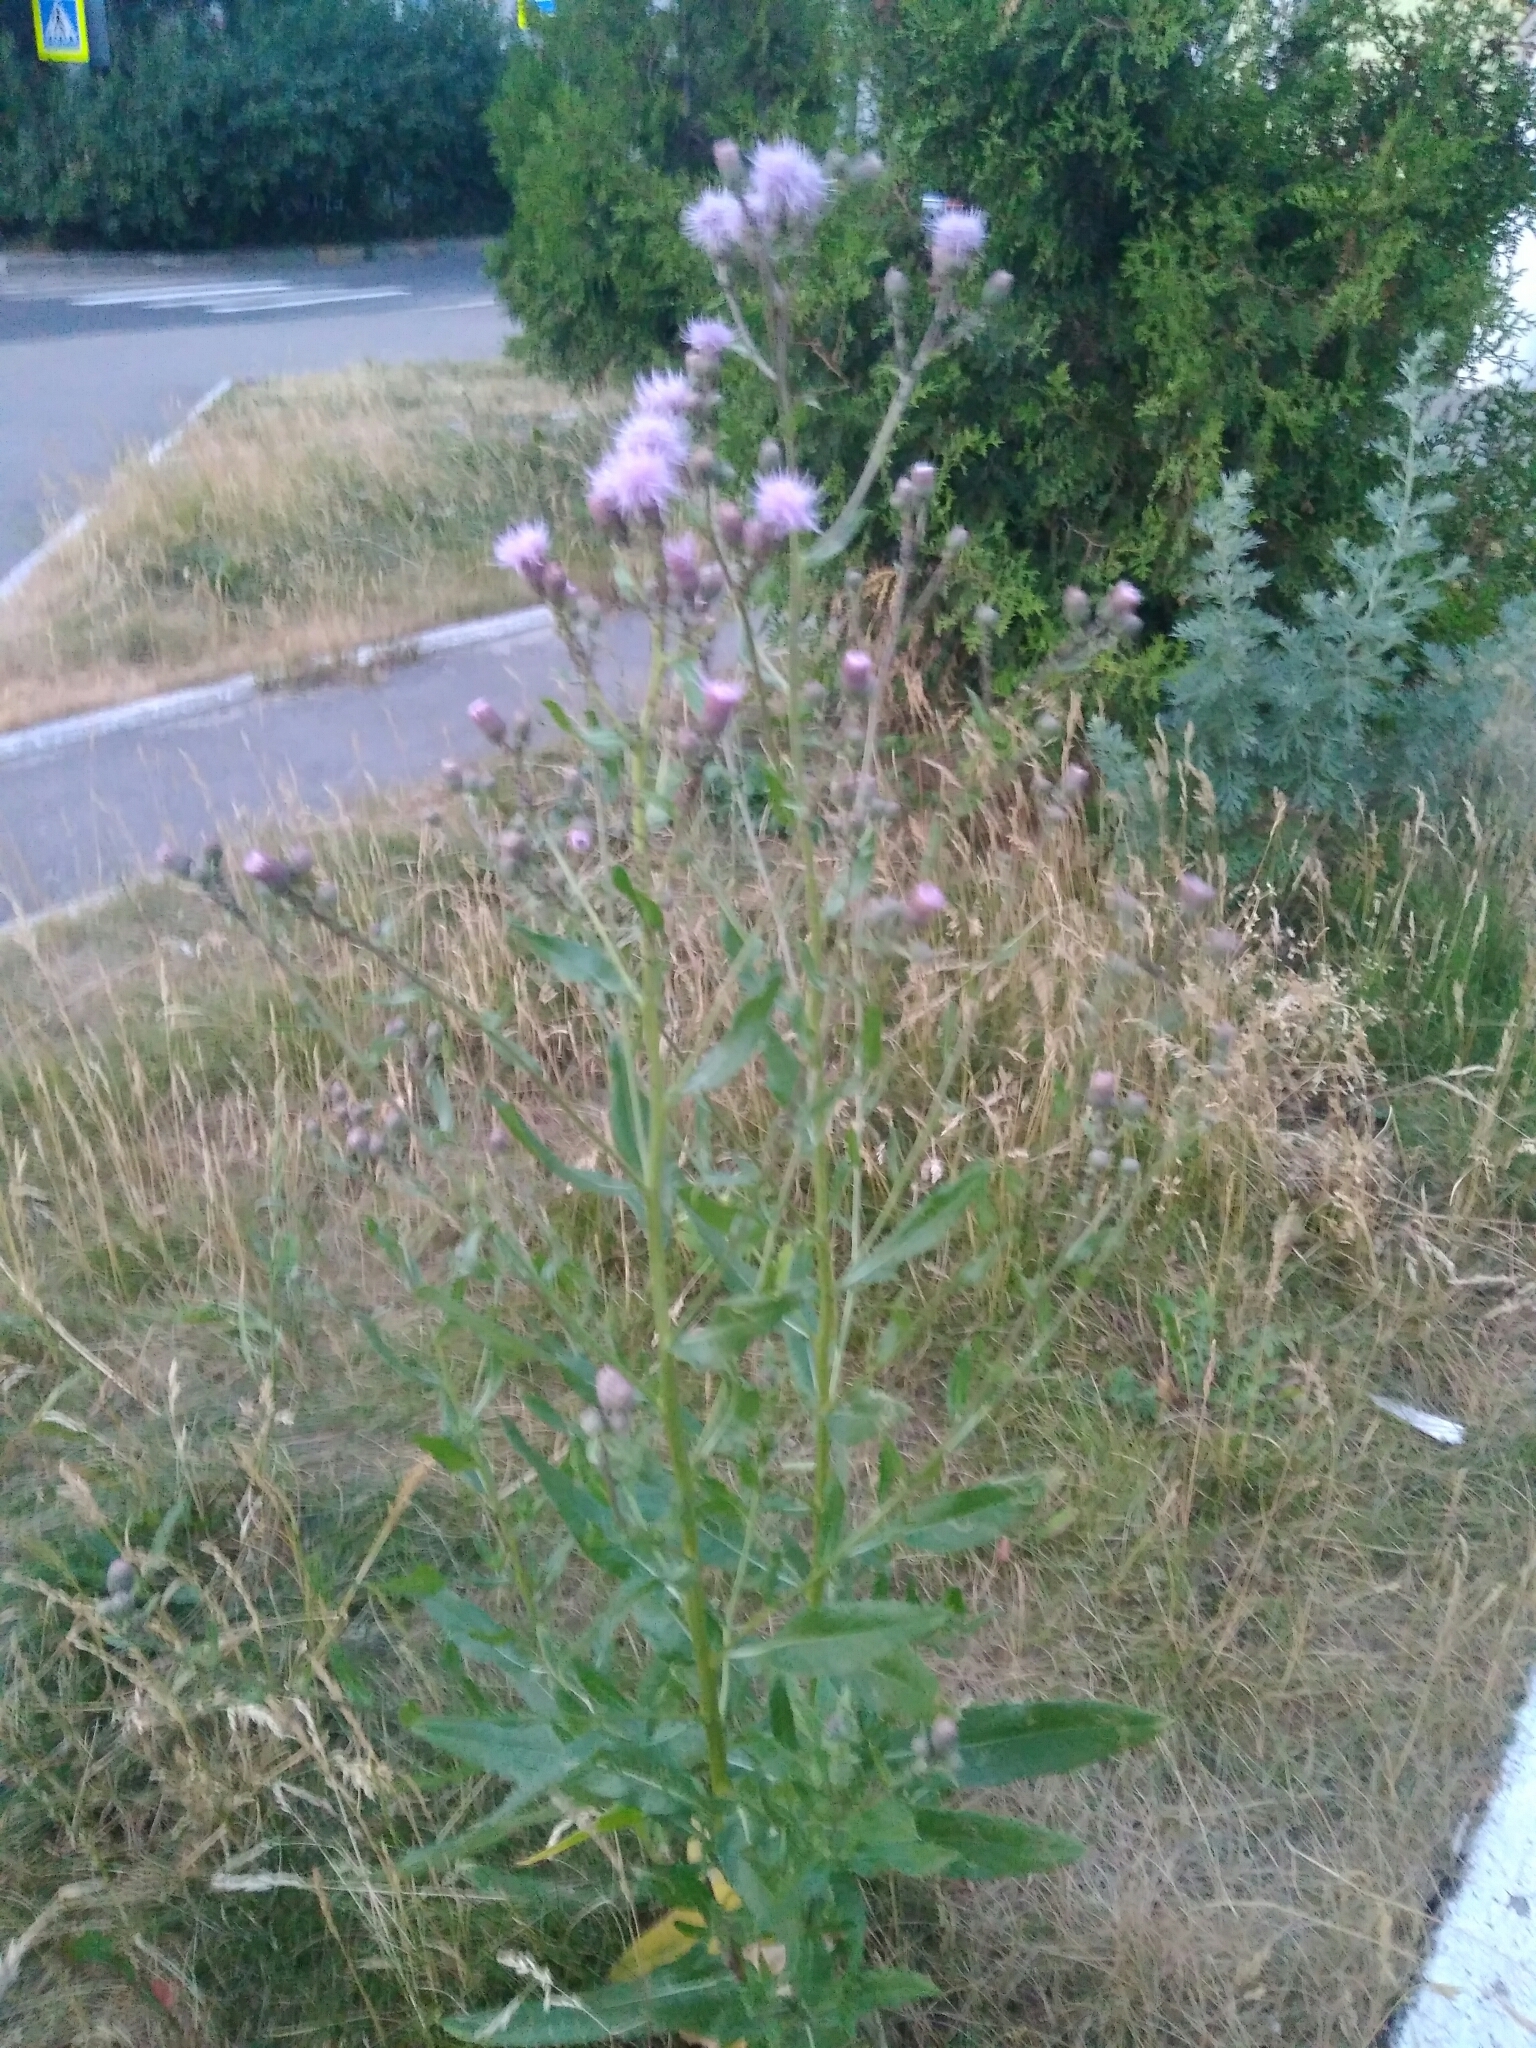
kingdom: Plantae
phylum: Tracheophyta
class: Magnoliopsida
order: Asterales
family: Asteraceae
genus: Cirsium
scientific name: Cirsium arvense
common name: Creeping thistle
